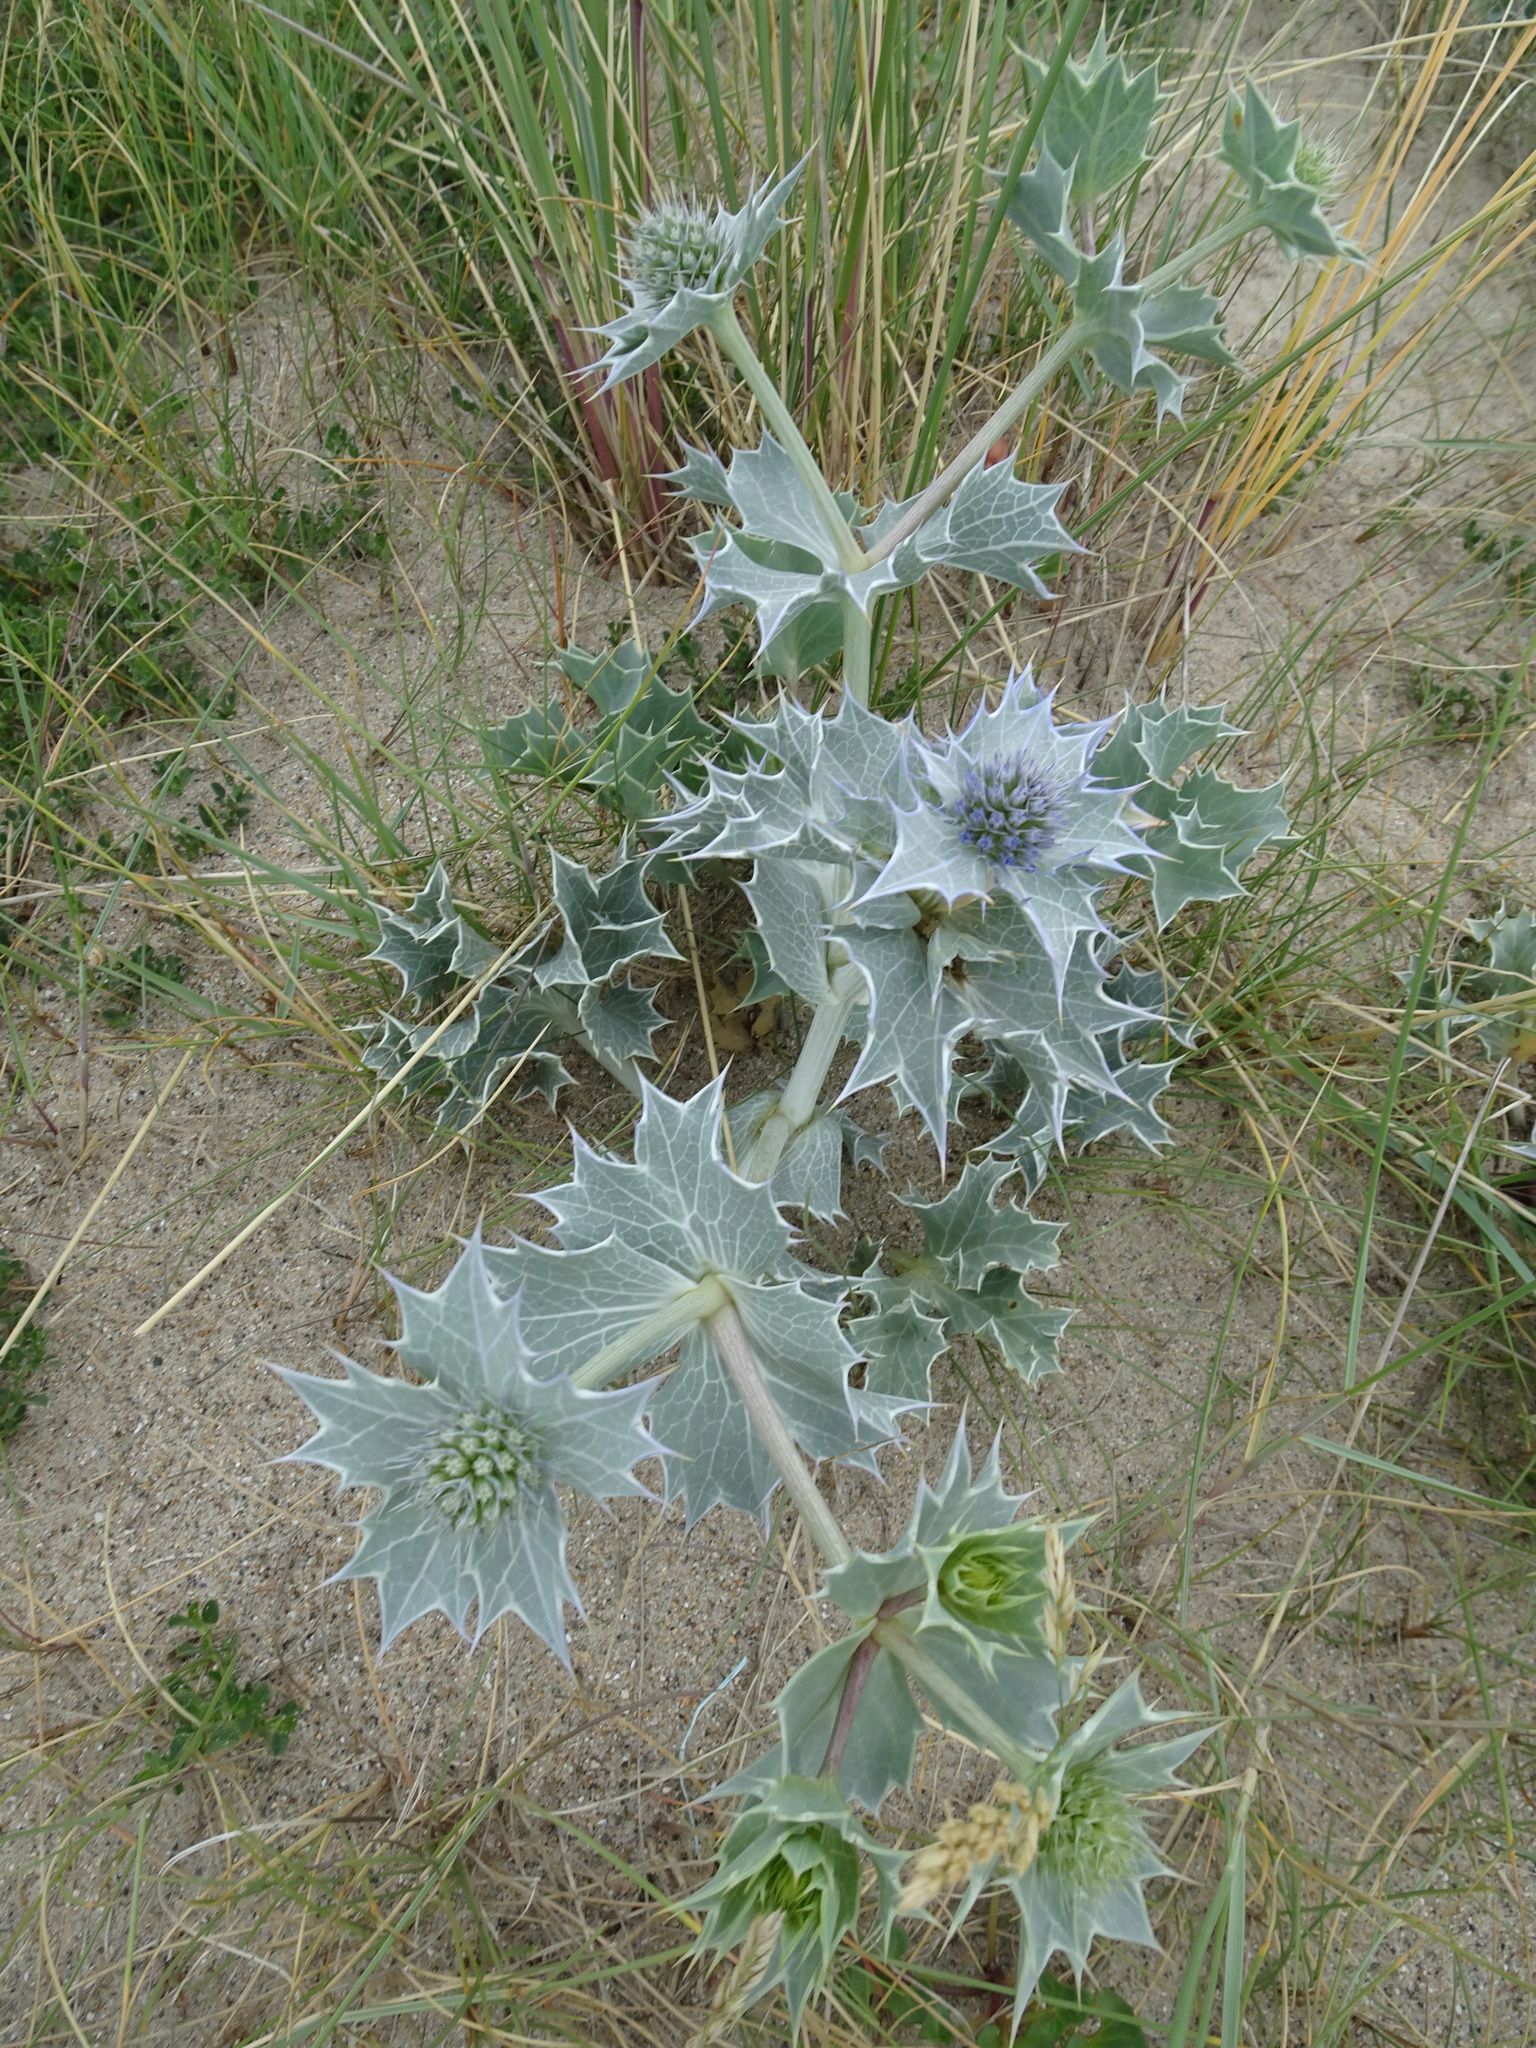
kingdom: Plantae
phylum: Tracheophyta
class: Magnoliopsida
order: Apiales
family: Apiaceae
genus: Eryngium
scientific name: Eryngium maritimum
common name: Sea-holly
